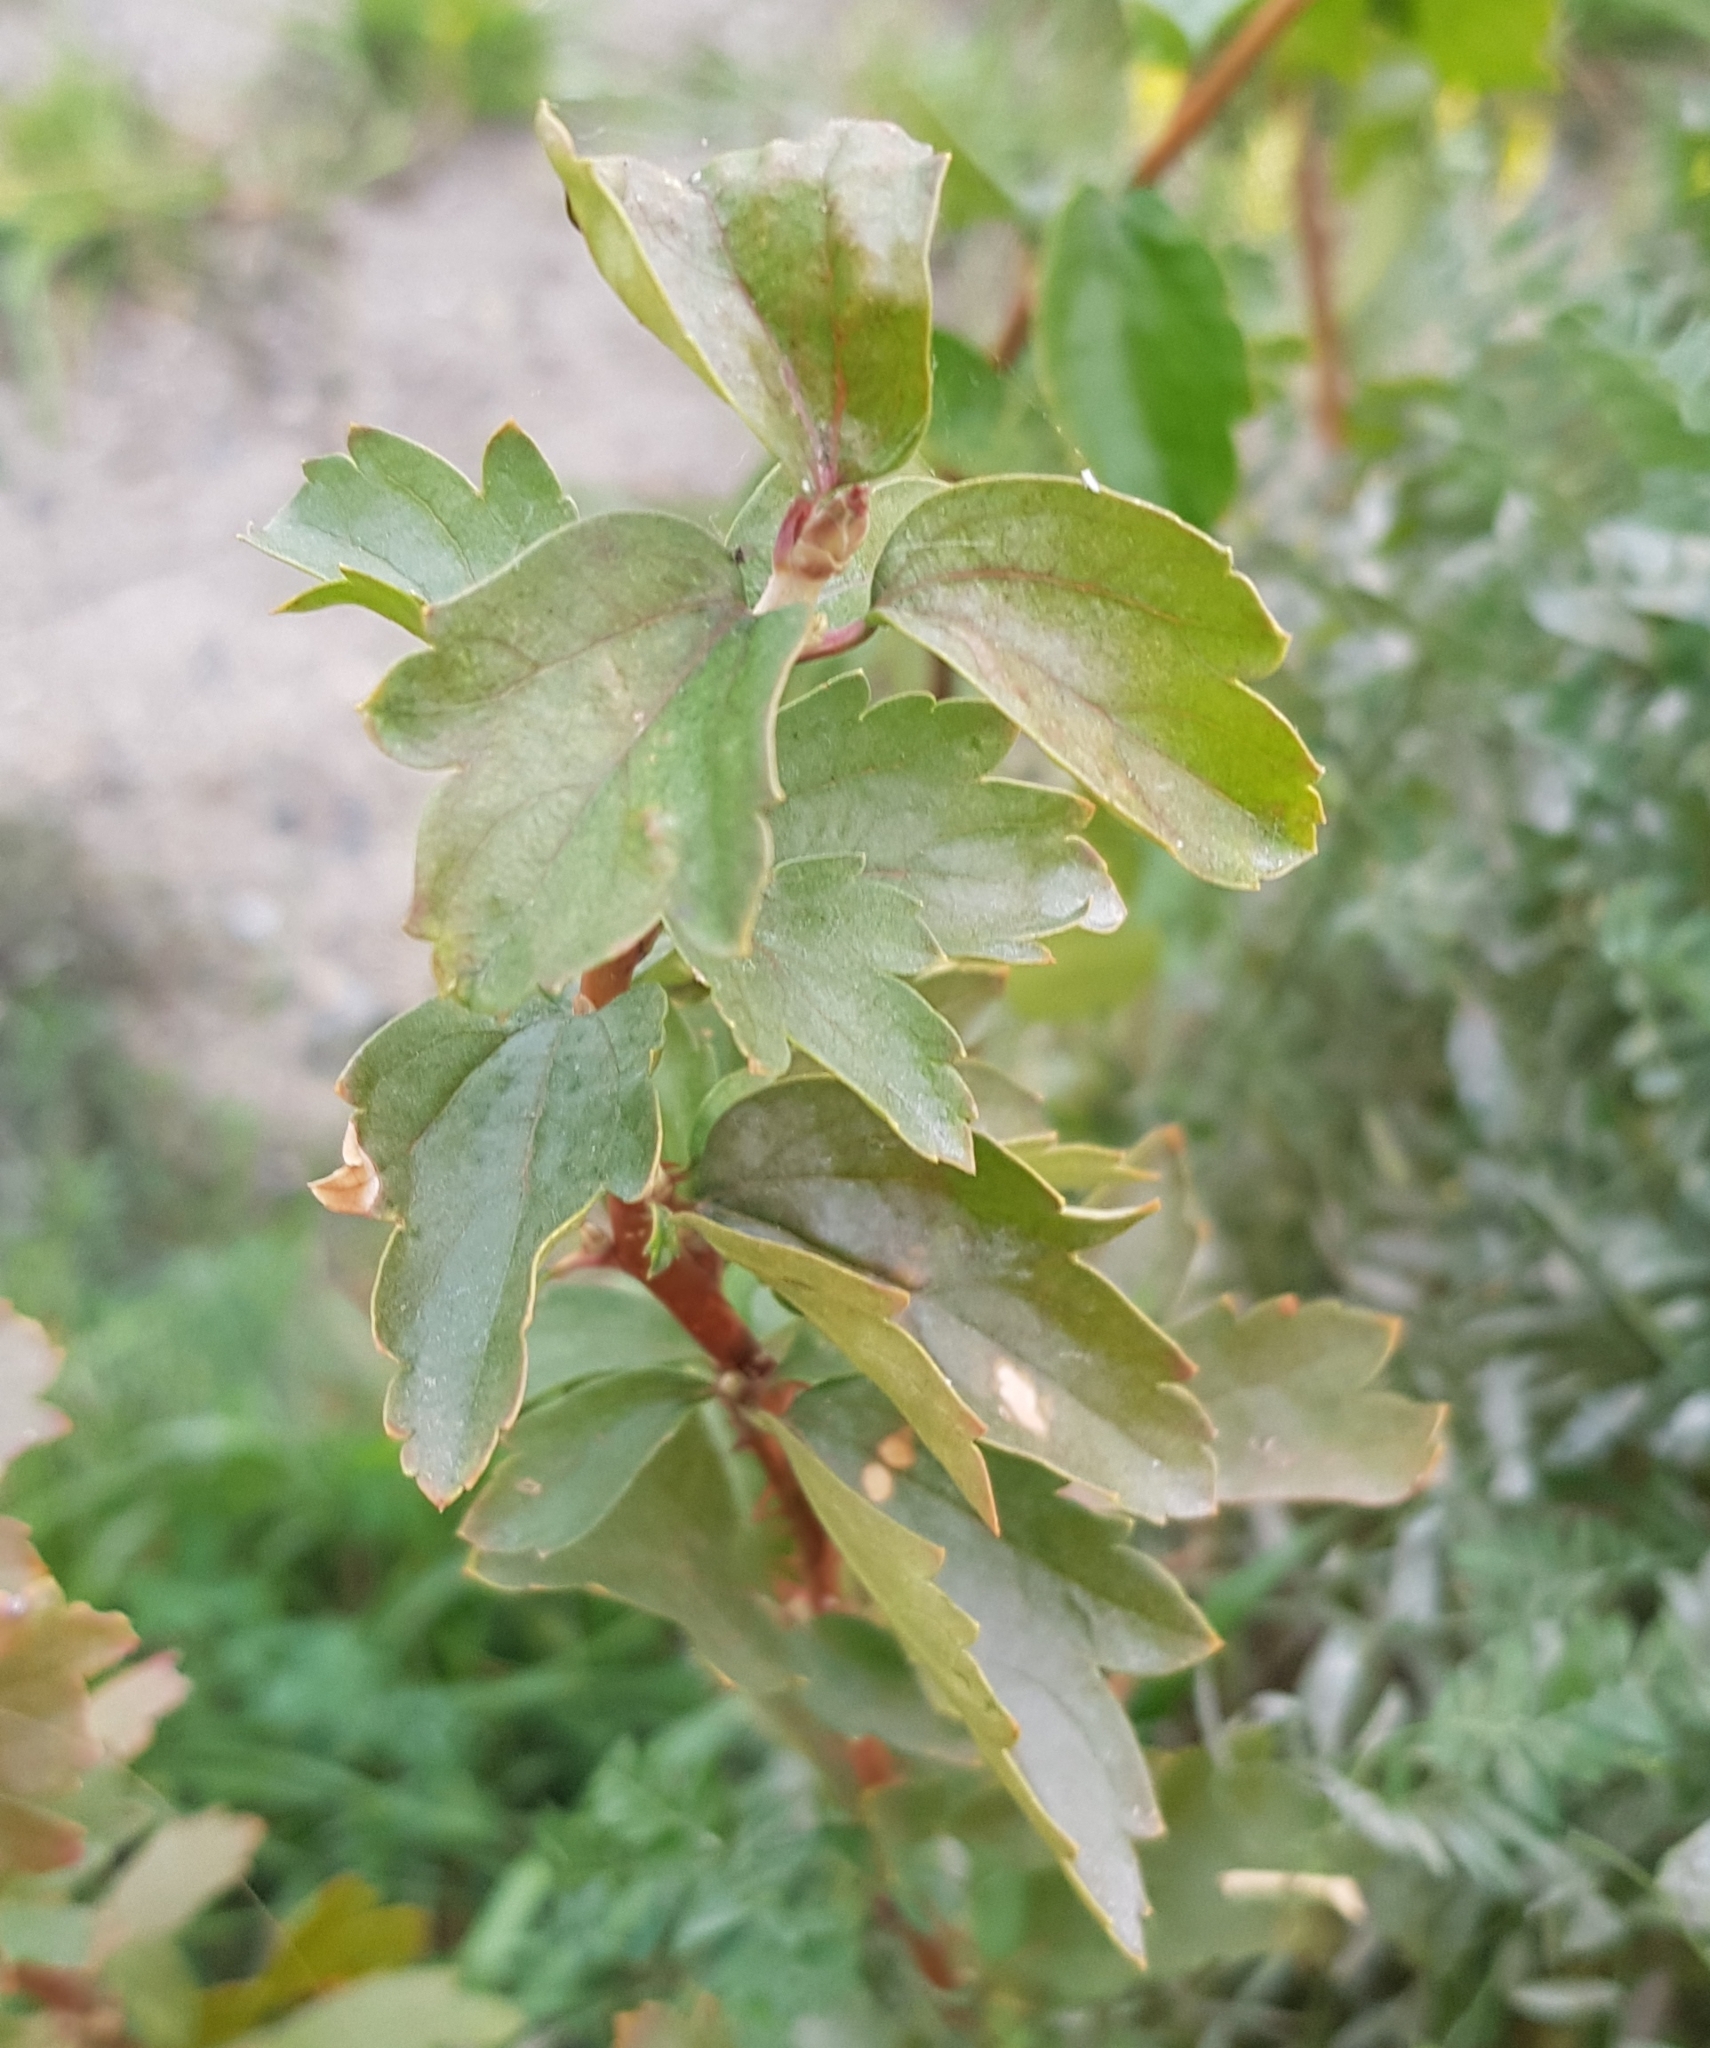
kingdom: Plantae
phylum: Tracheophyta
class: Magnoliopsida
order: Saxifragales
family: Grossulariaceae
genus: Ribes
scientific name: Ribes diacanthum
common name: Siberian currant
